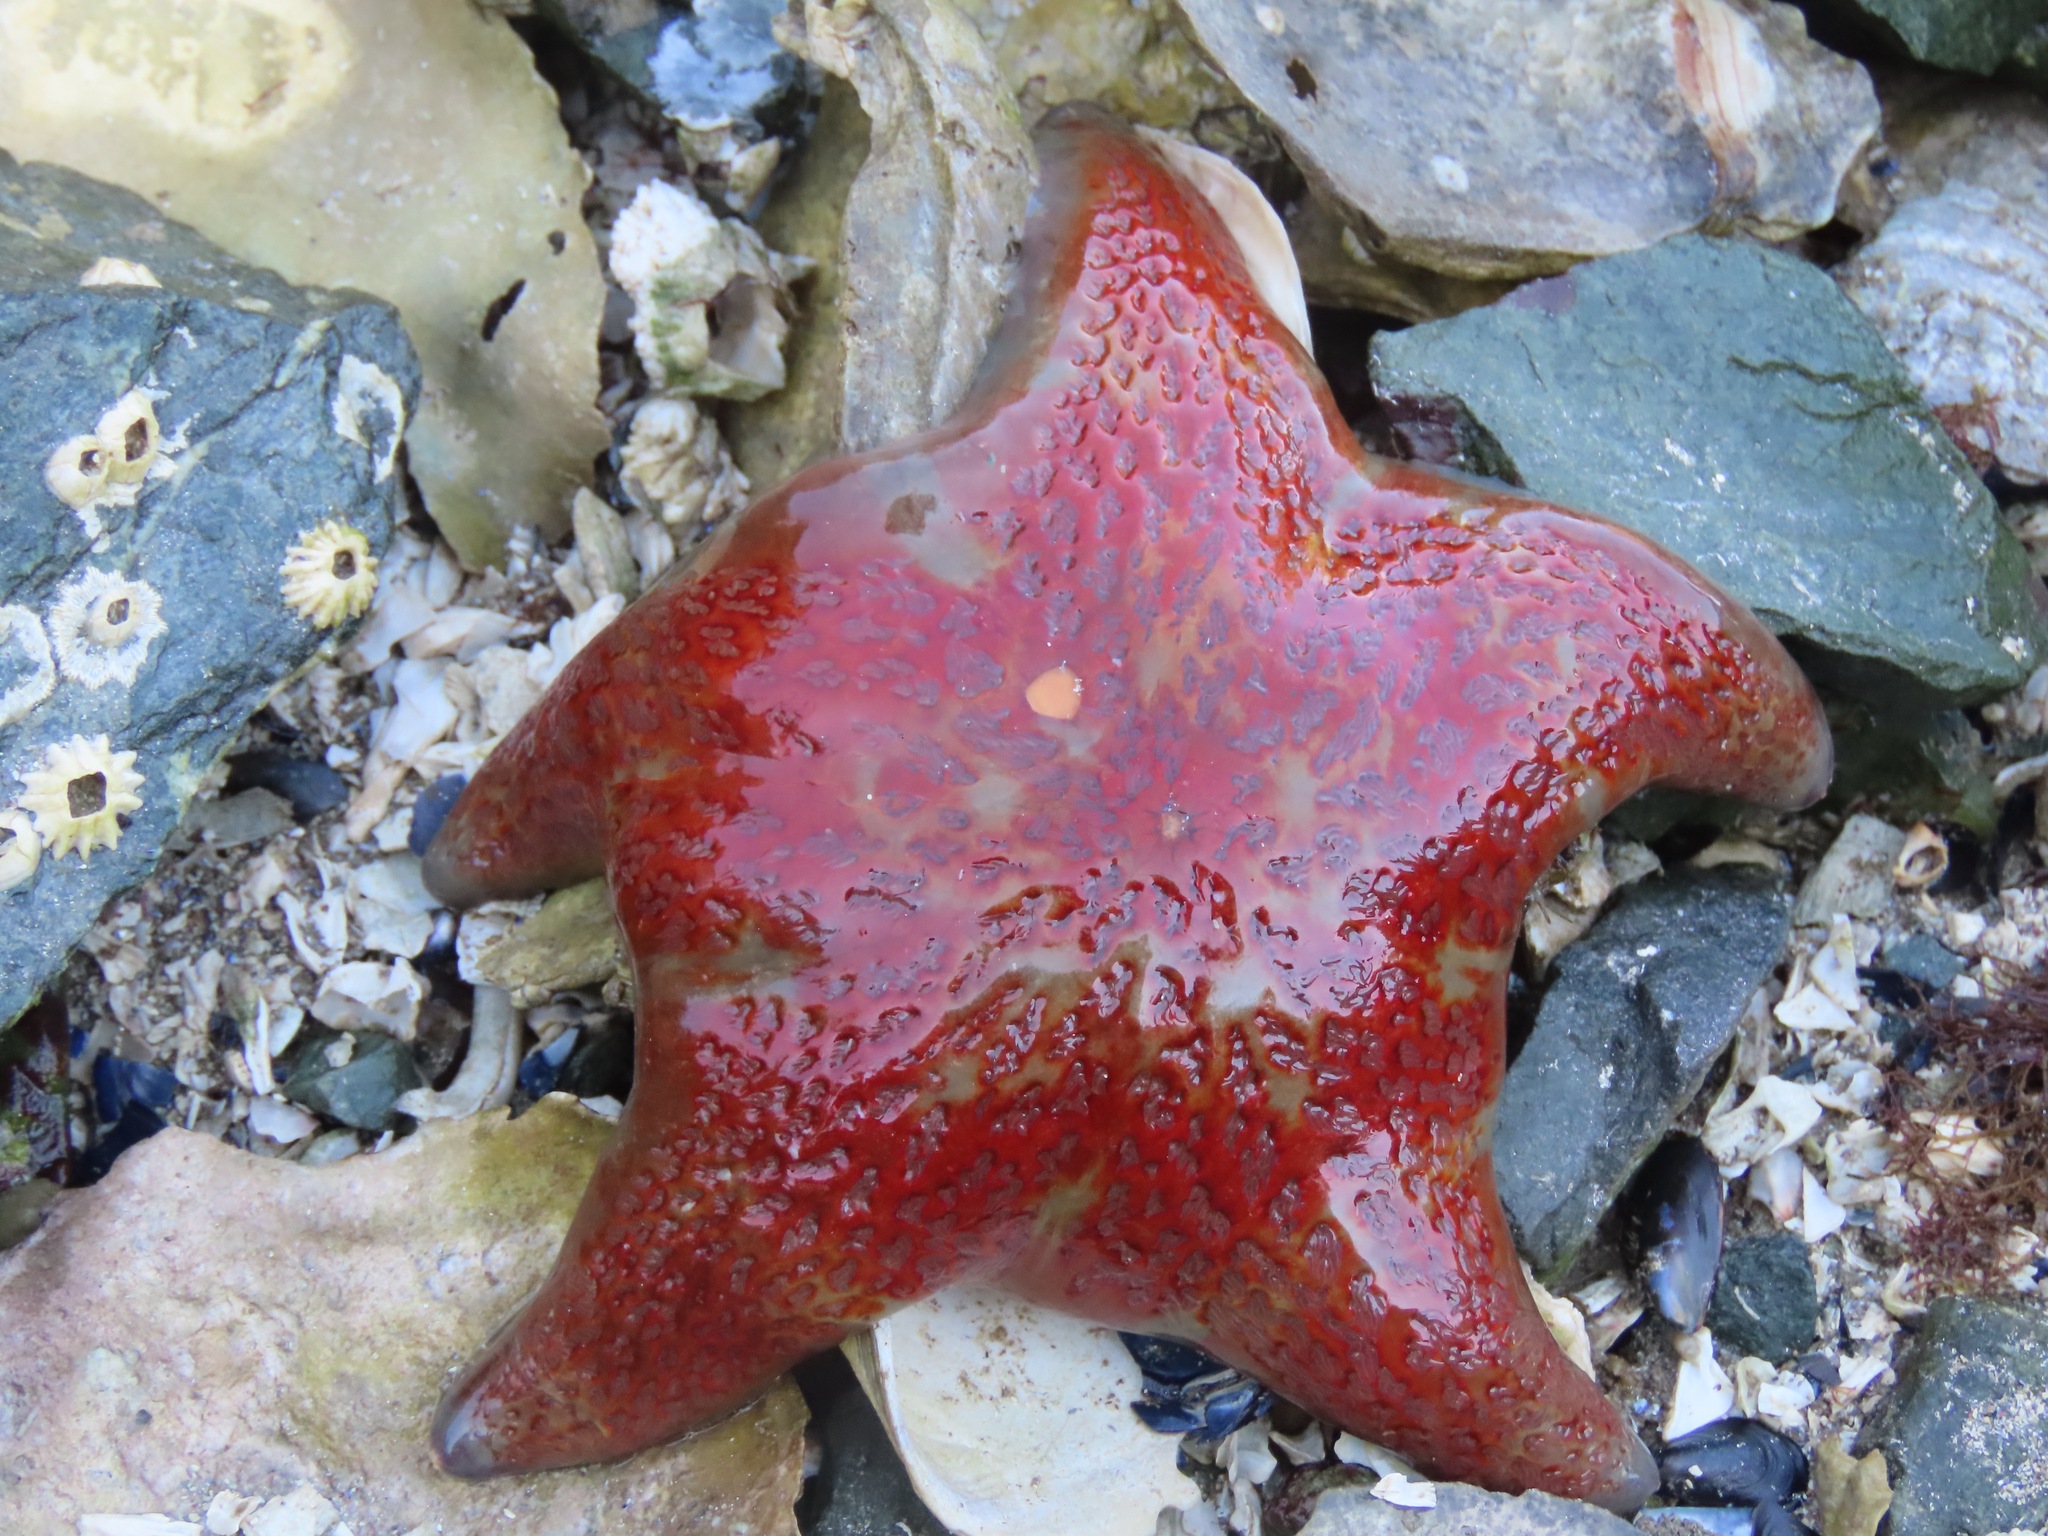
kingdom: Animalia
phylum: Echinodermata
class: Asteroidea
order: Valvatida
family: Asteropseidae
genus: Dermasterias
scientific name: Dermasterias imbricata
